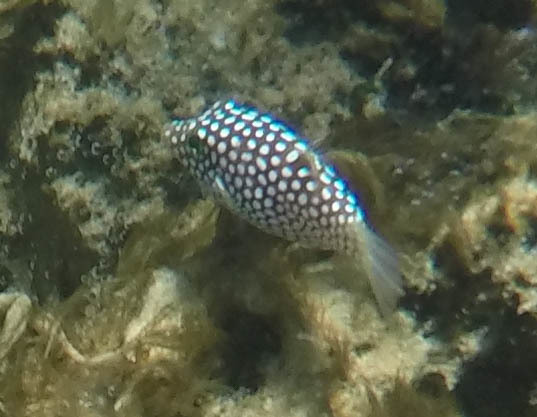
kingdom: Animalia
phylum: Chordata
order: Tetraodontiformes
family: Tetraodontidae
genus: Canthigaster
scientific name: Canthigaster jactator
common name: Hawaiian whitespotted toby
